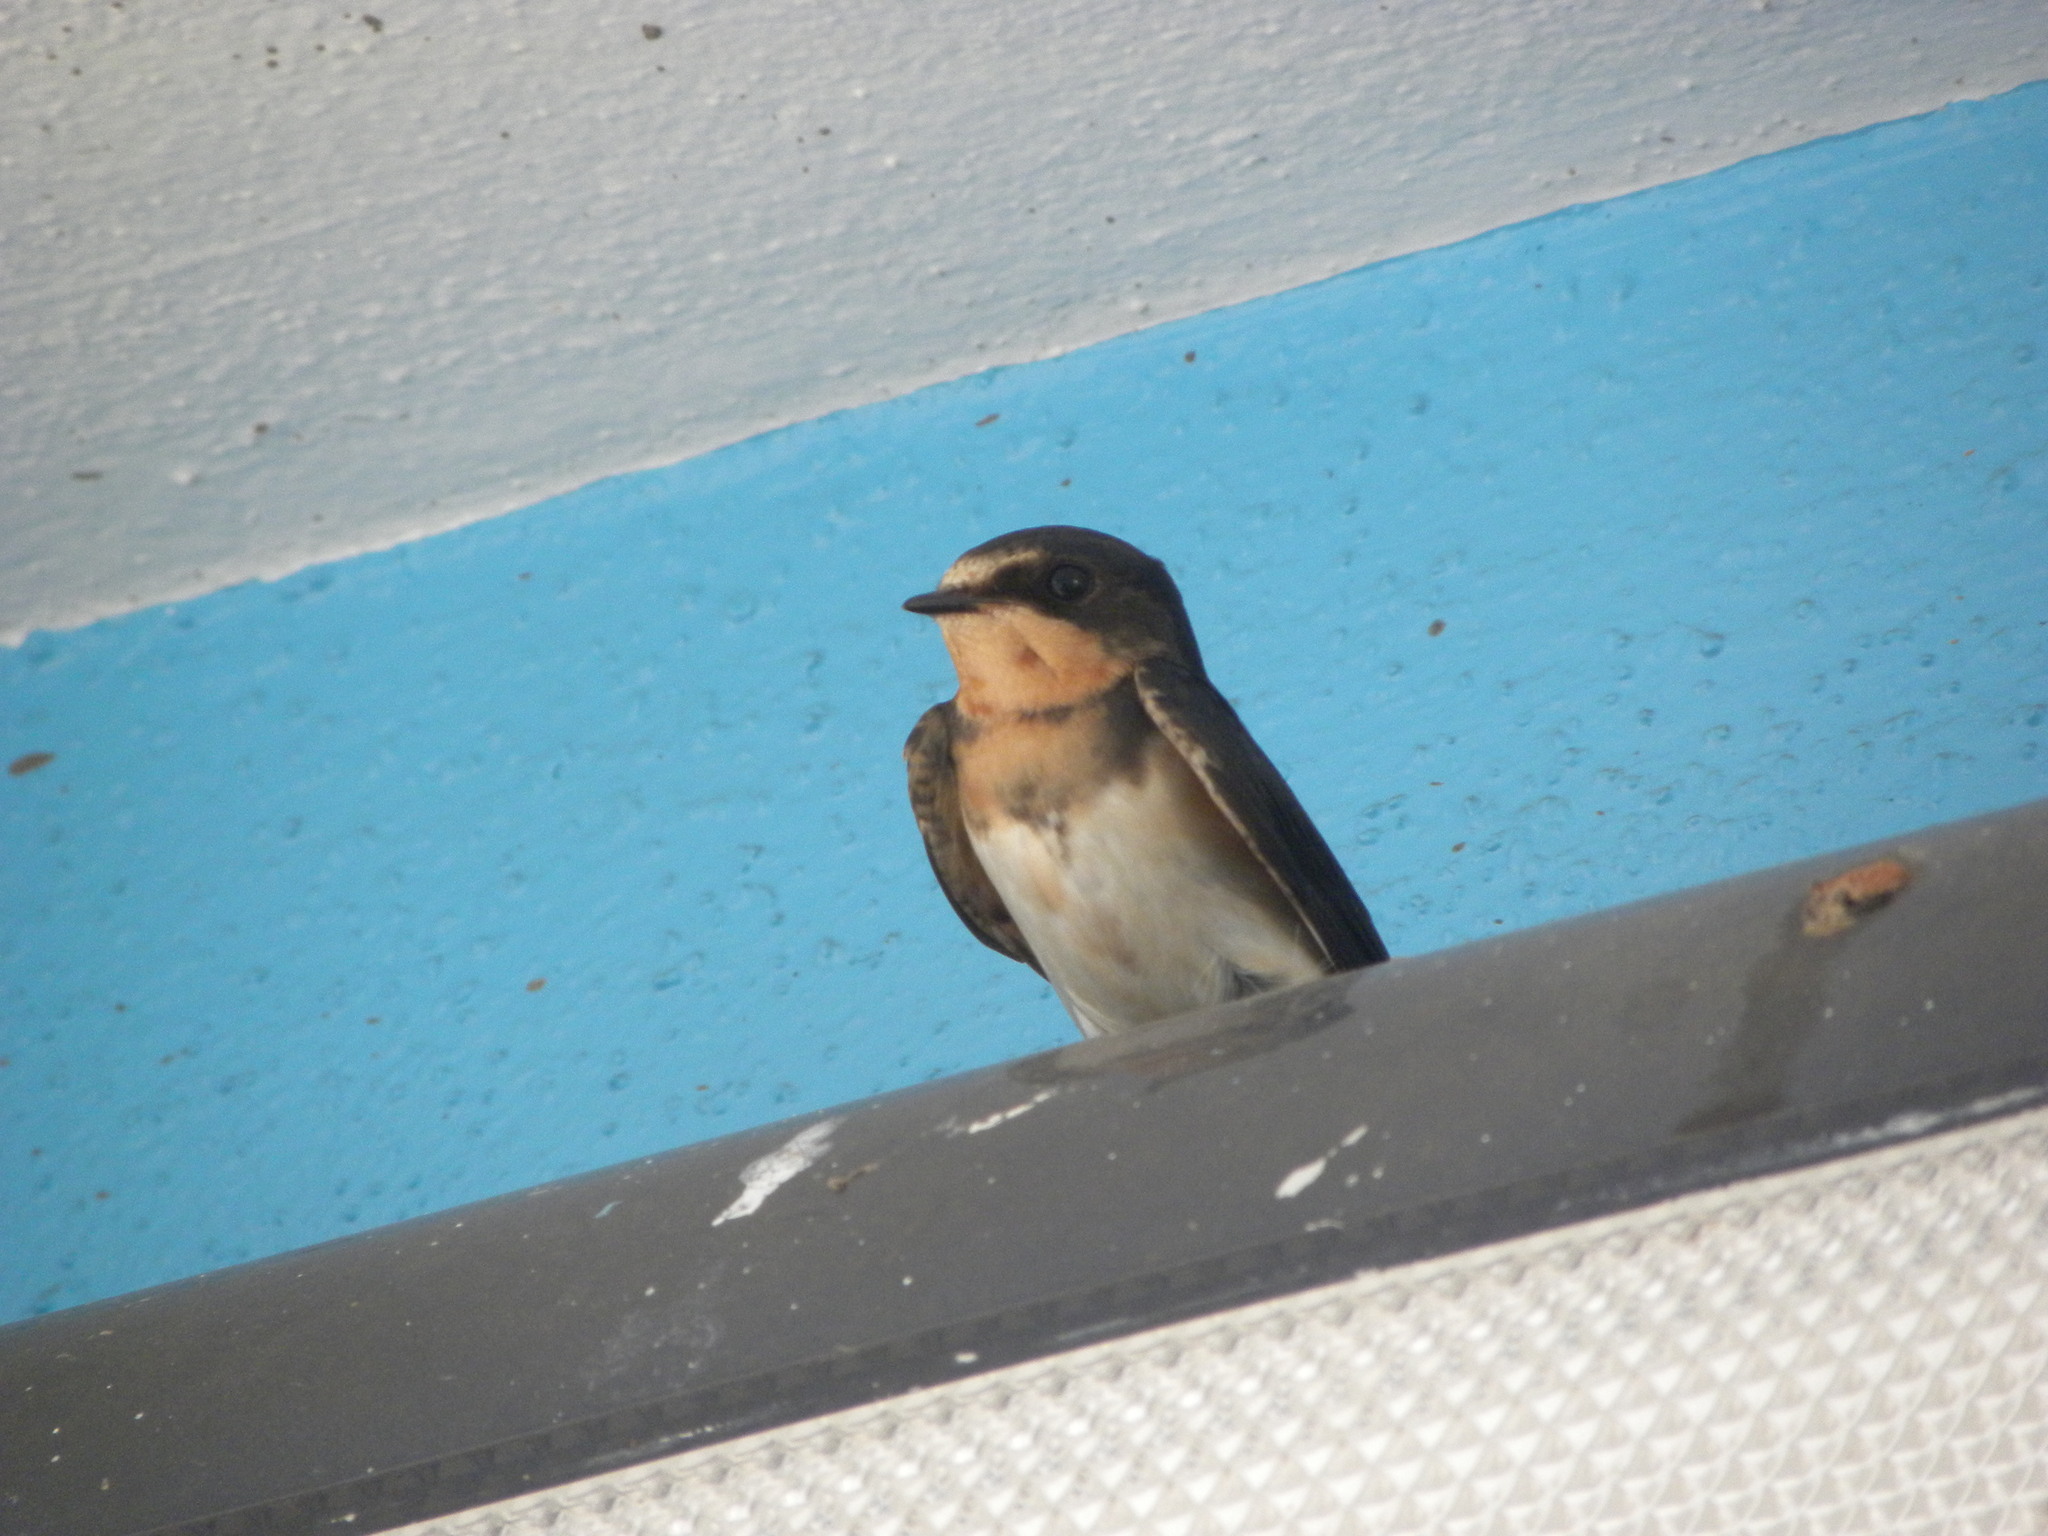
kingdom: Animalia
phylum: Chordata
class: Aves
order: Passeriformes
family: Hirundinidae
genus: Hirundo
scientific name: Hirundo rustica
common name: Barn swallow
